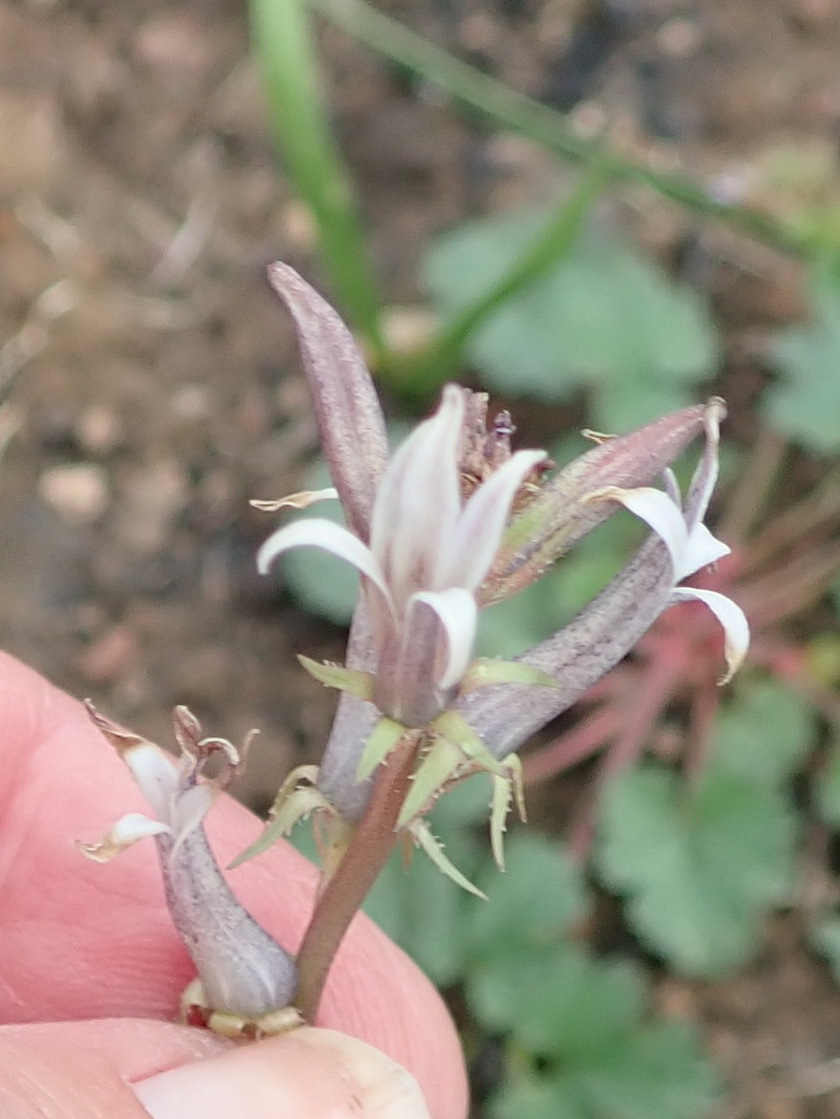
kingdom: Plantae
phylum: Tracheophyta
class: Magnoliopsida
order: Asterales
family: Campanulaceae
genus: Cyphia
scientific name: Cyphia phyteuma
